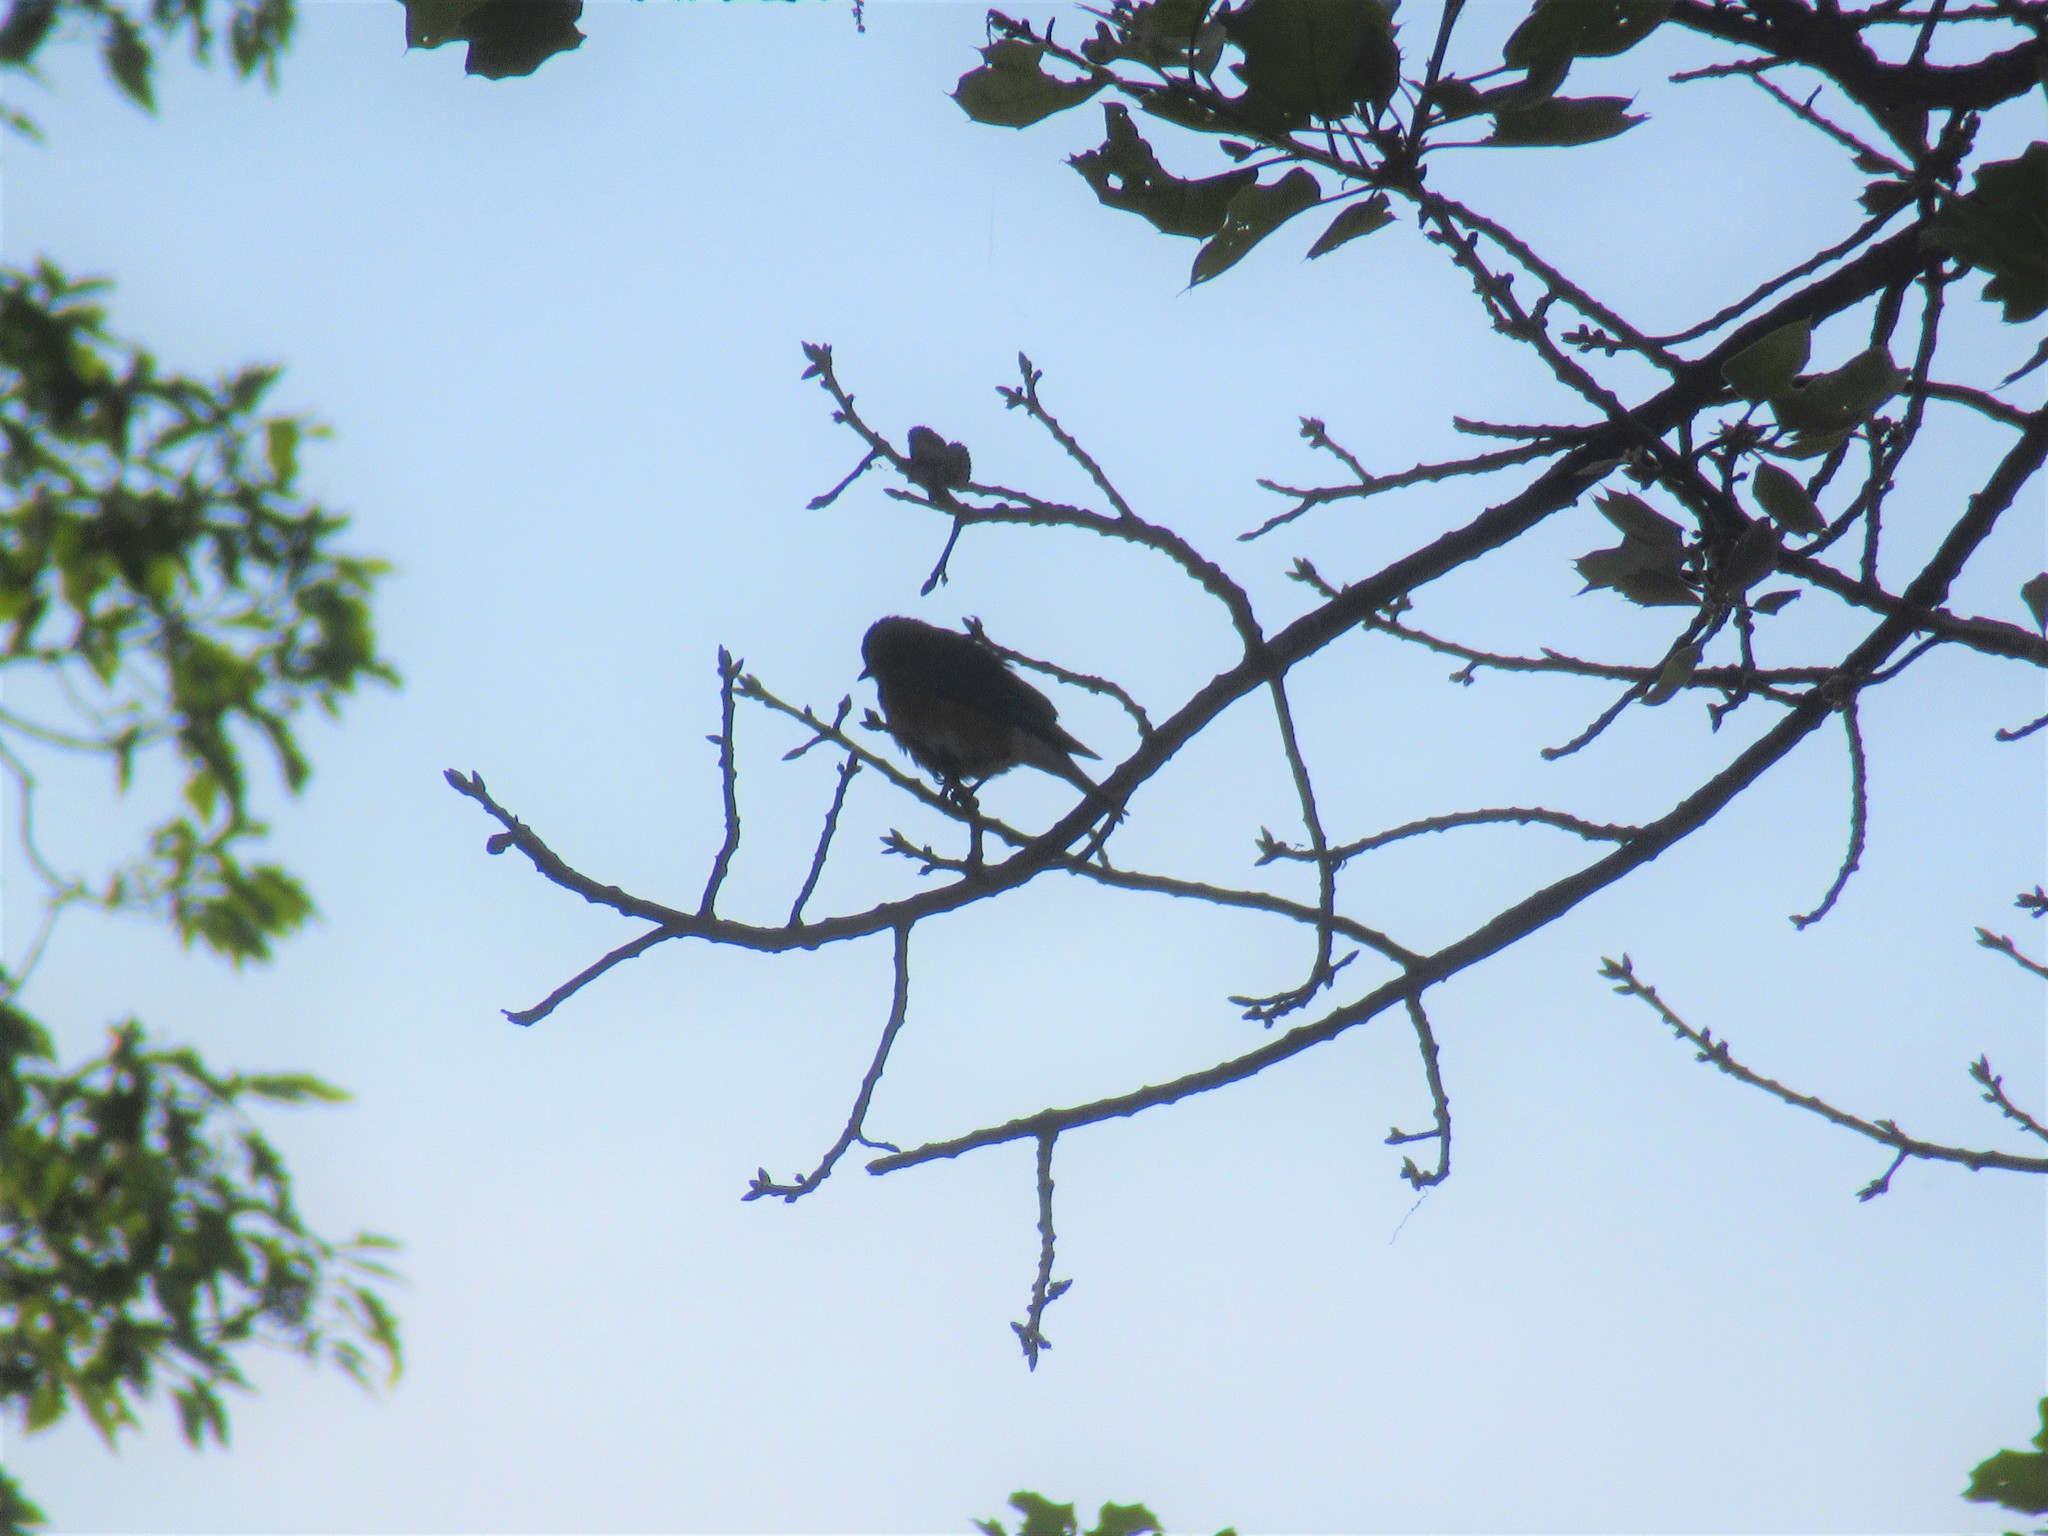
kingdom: Animalia
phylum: Chordata
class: Aves
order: Passeriformes
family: Turdidae
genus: Sialia
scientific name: Sialia sialis
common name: Eastern bluebird
